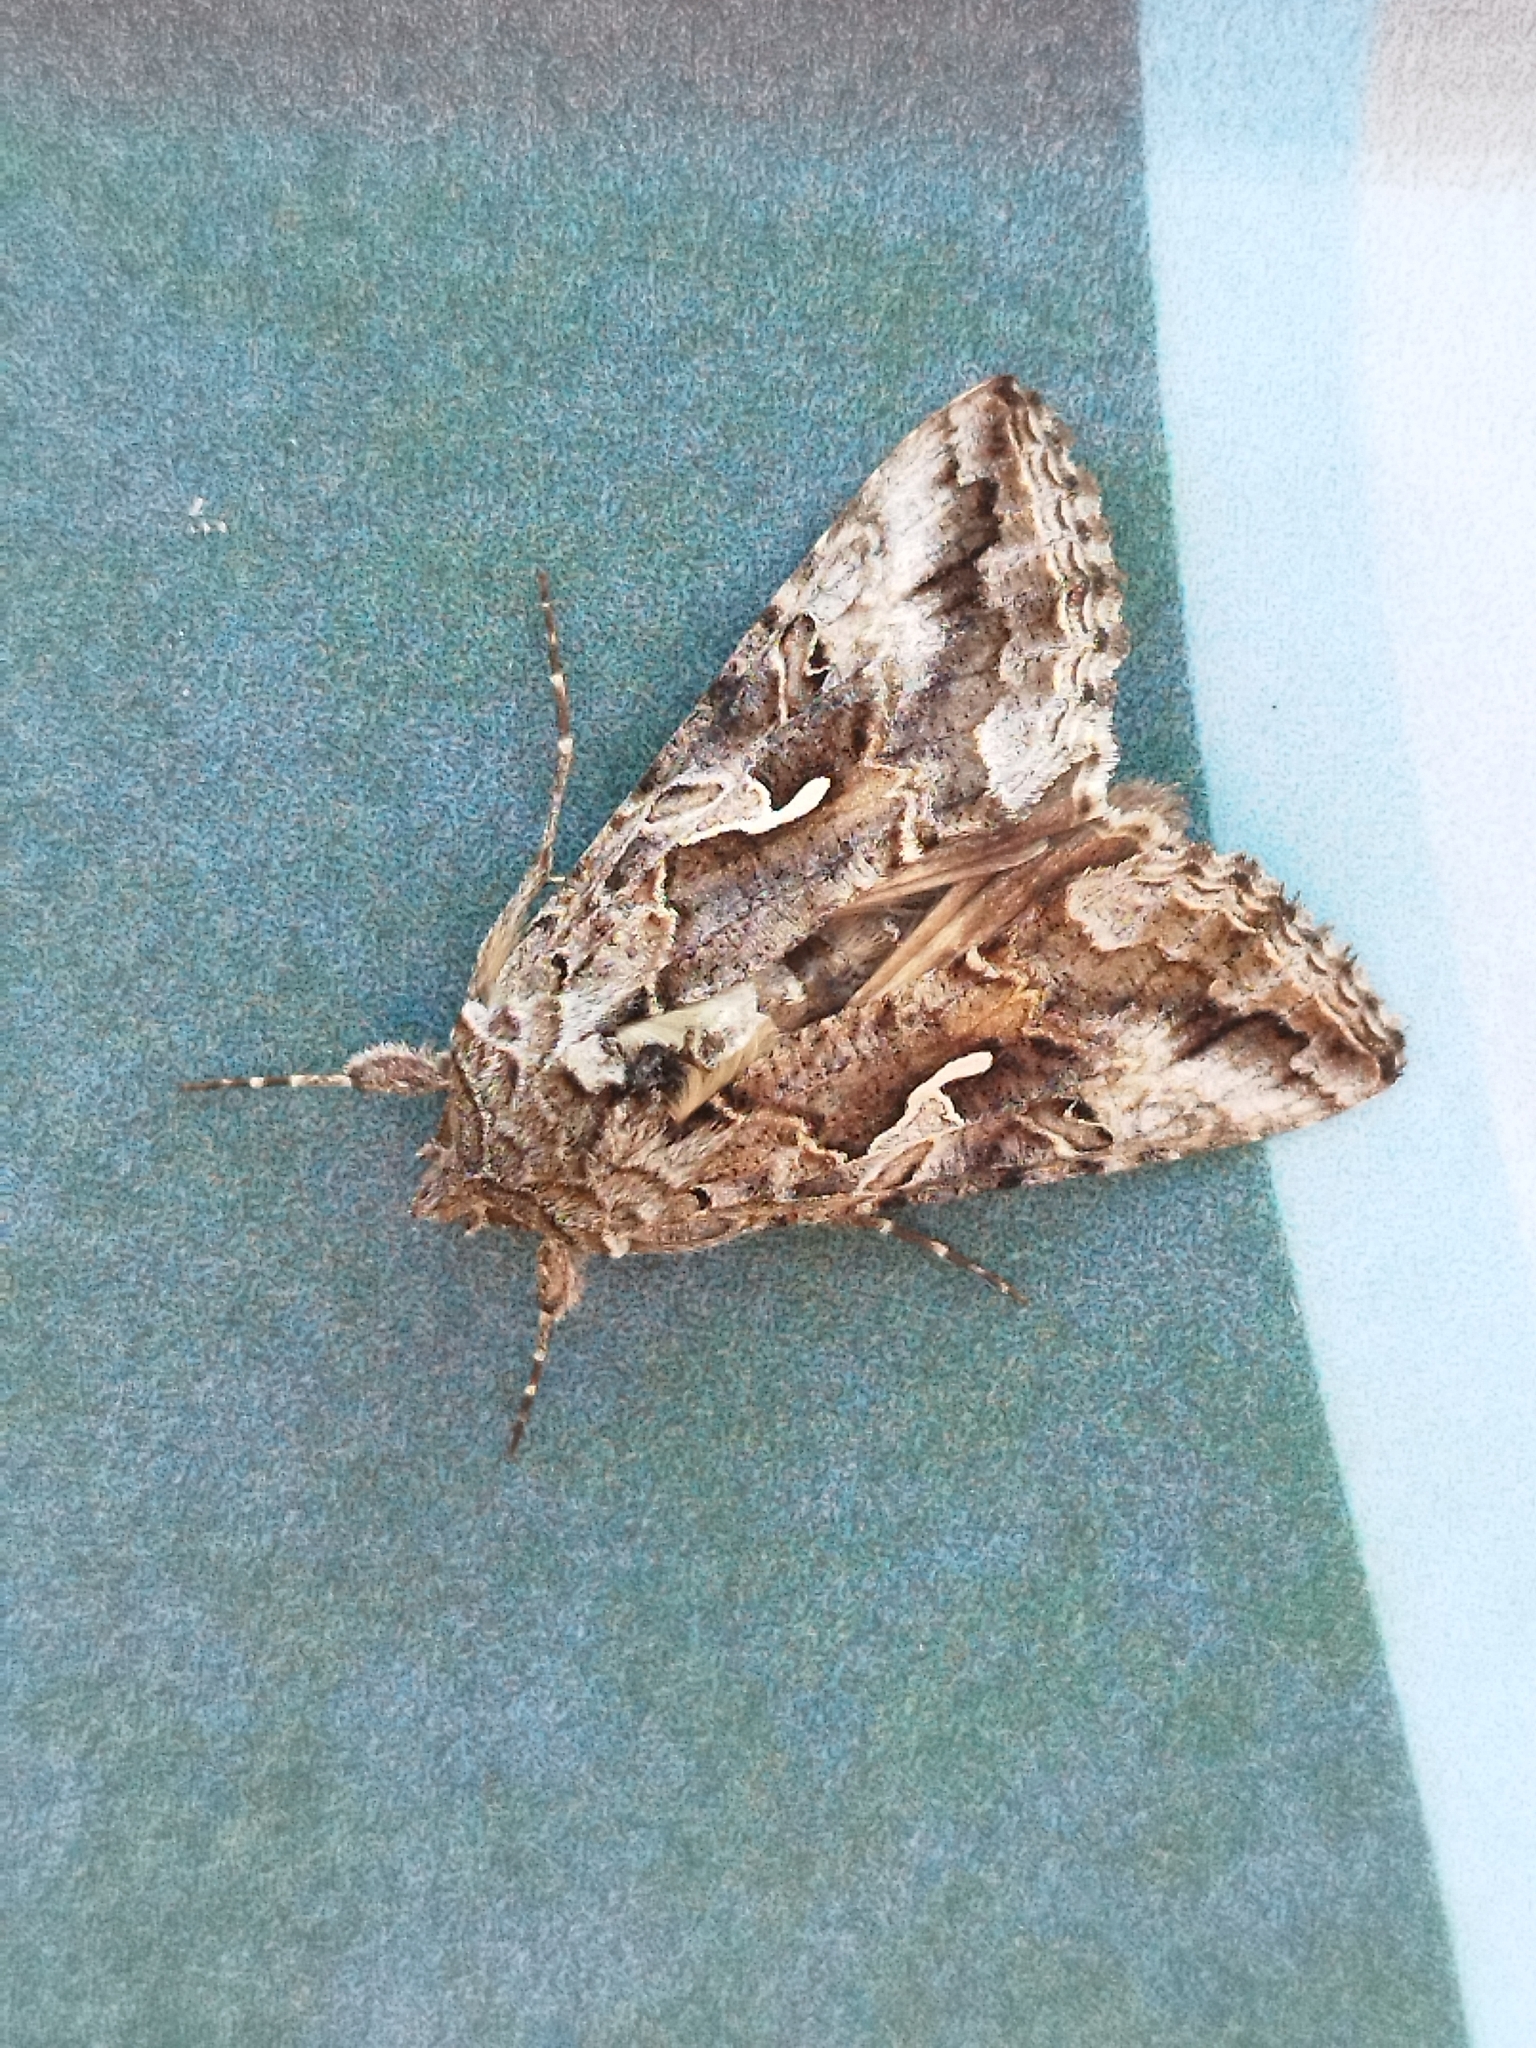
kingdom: Animalia
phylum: Arthropoda
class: Insecta
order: Lepidoptera
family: Noctuidae
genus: Autographa
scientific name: Autographa californica
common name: Alfalfa looper
